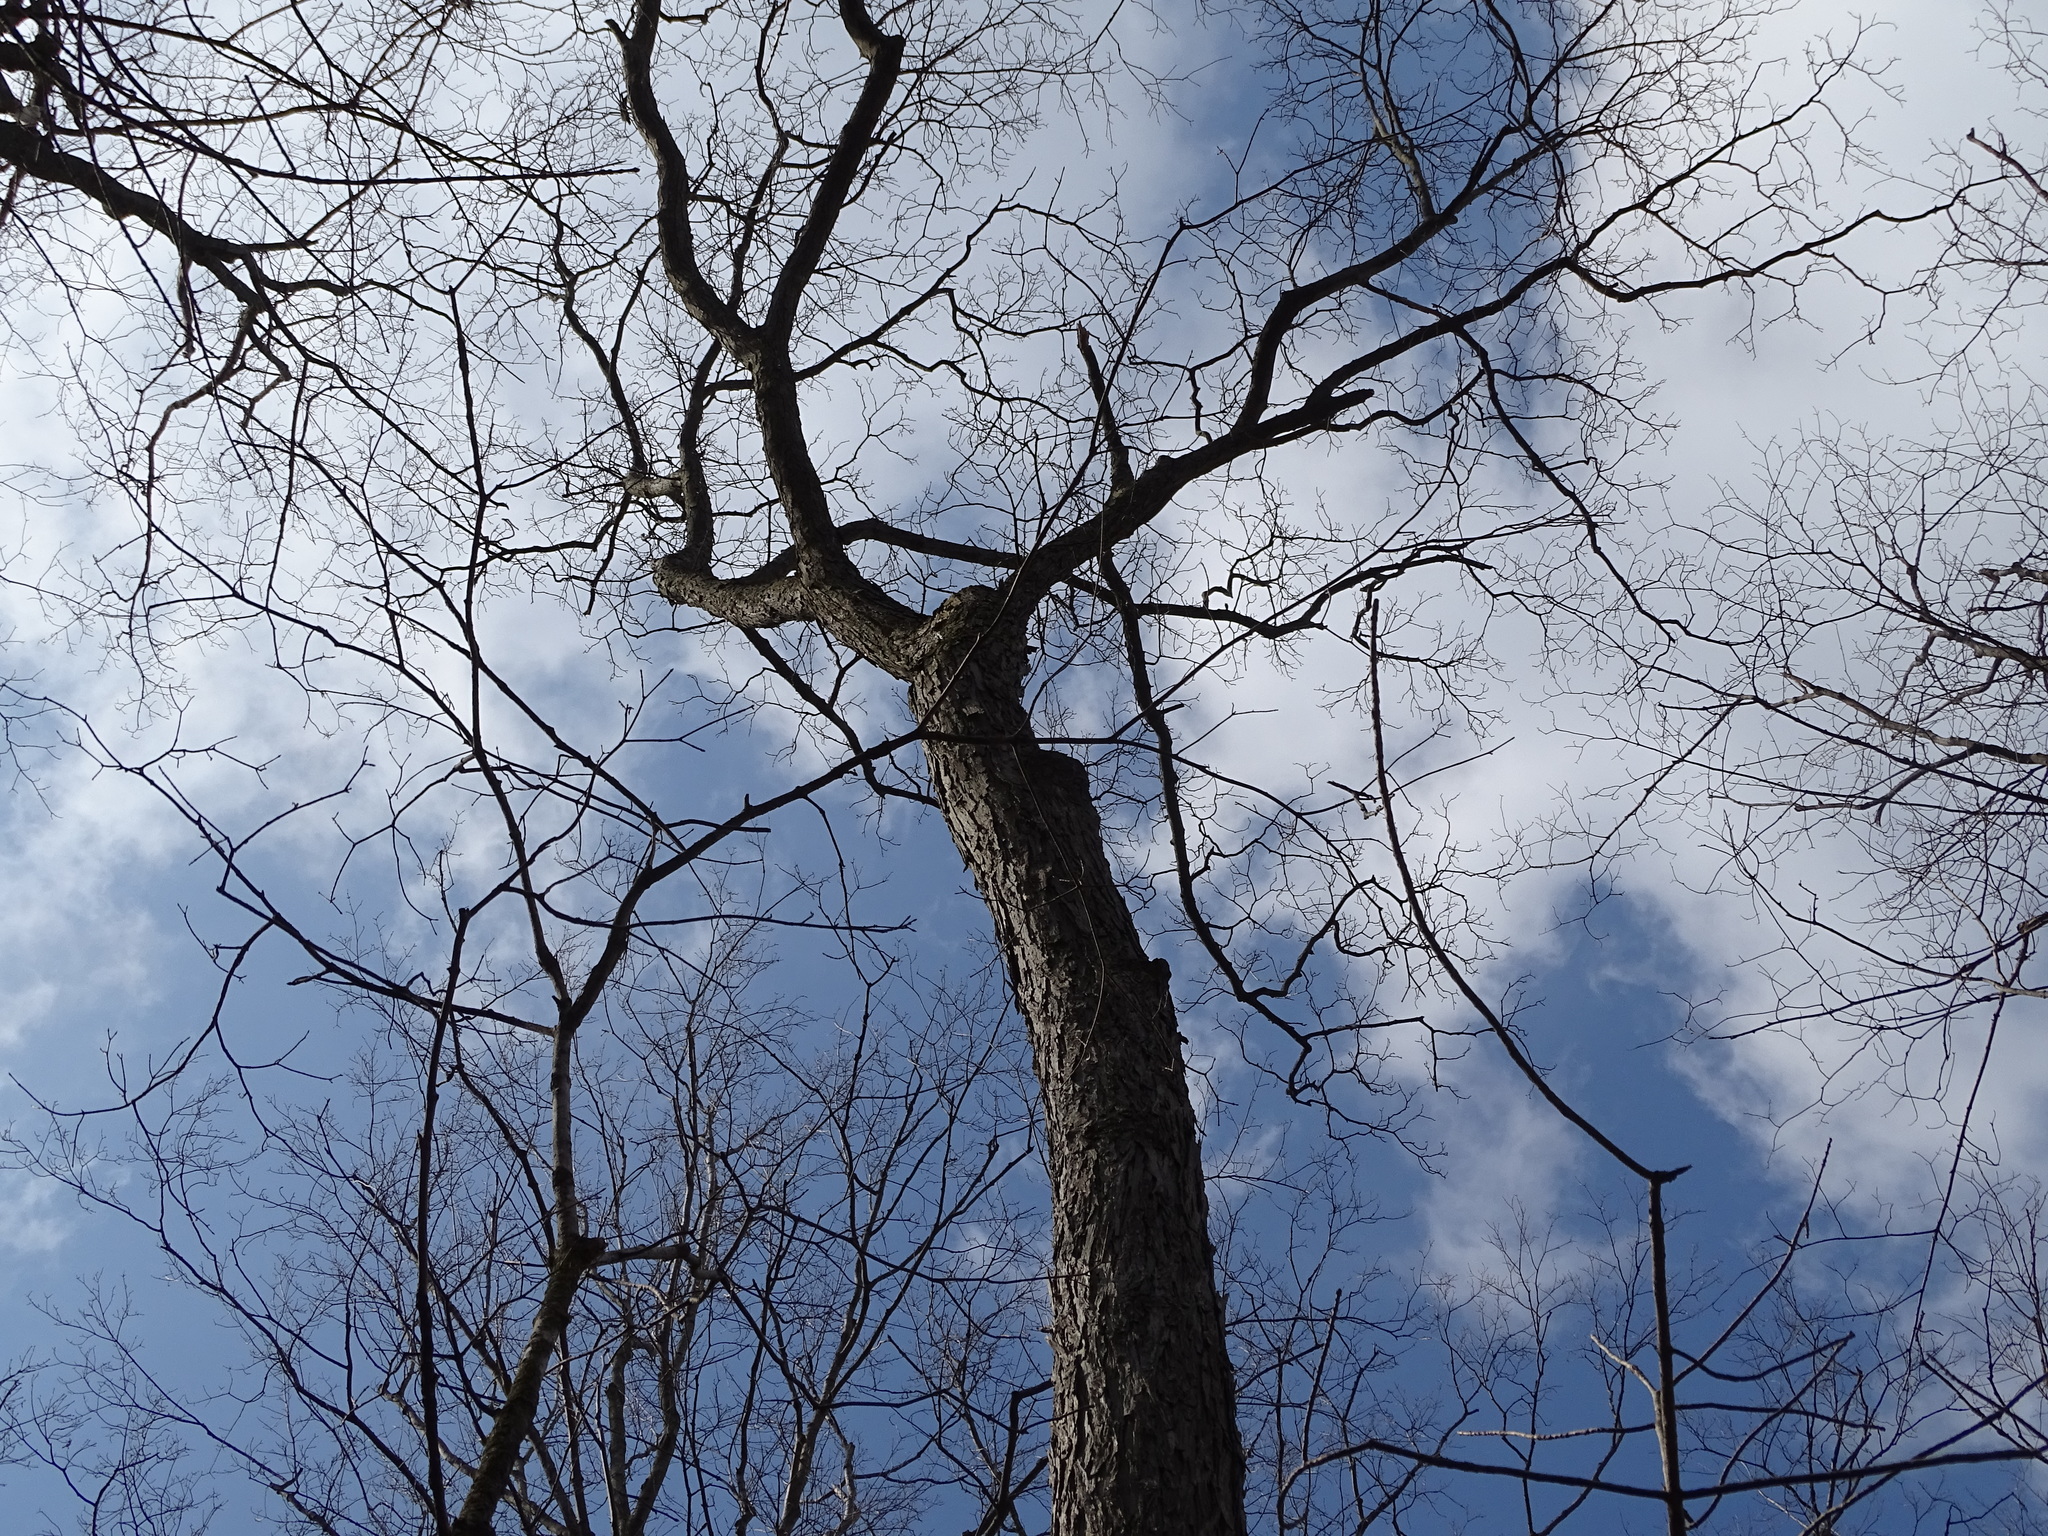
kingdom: Plantae
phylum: Tracheophyta
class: Magnoliopsida
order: Fagales
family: Juglandaceae
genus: Carya
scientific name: Carya glabra
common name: Pignut hickory
